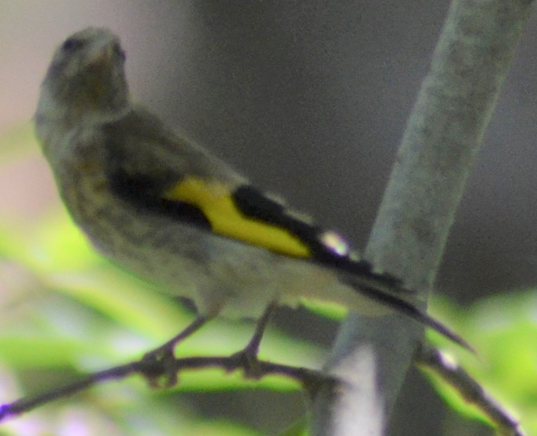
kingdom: Animalia
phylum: Chordata
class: Aves
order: Passeriformes
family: Fringillidae
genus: Carduelis
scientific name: Carduelis carduelis
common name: European goldfinch
